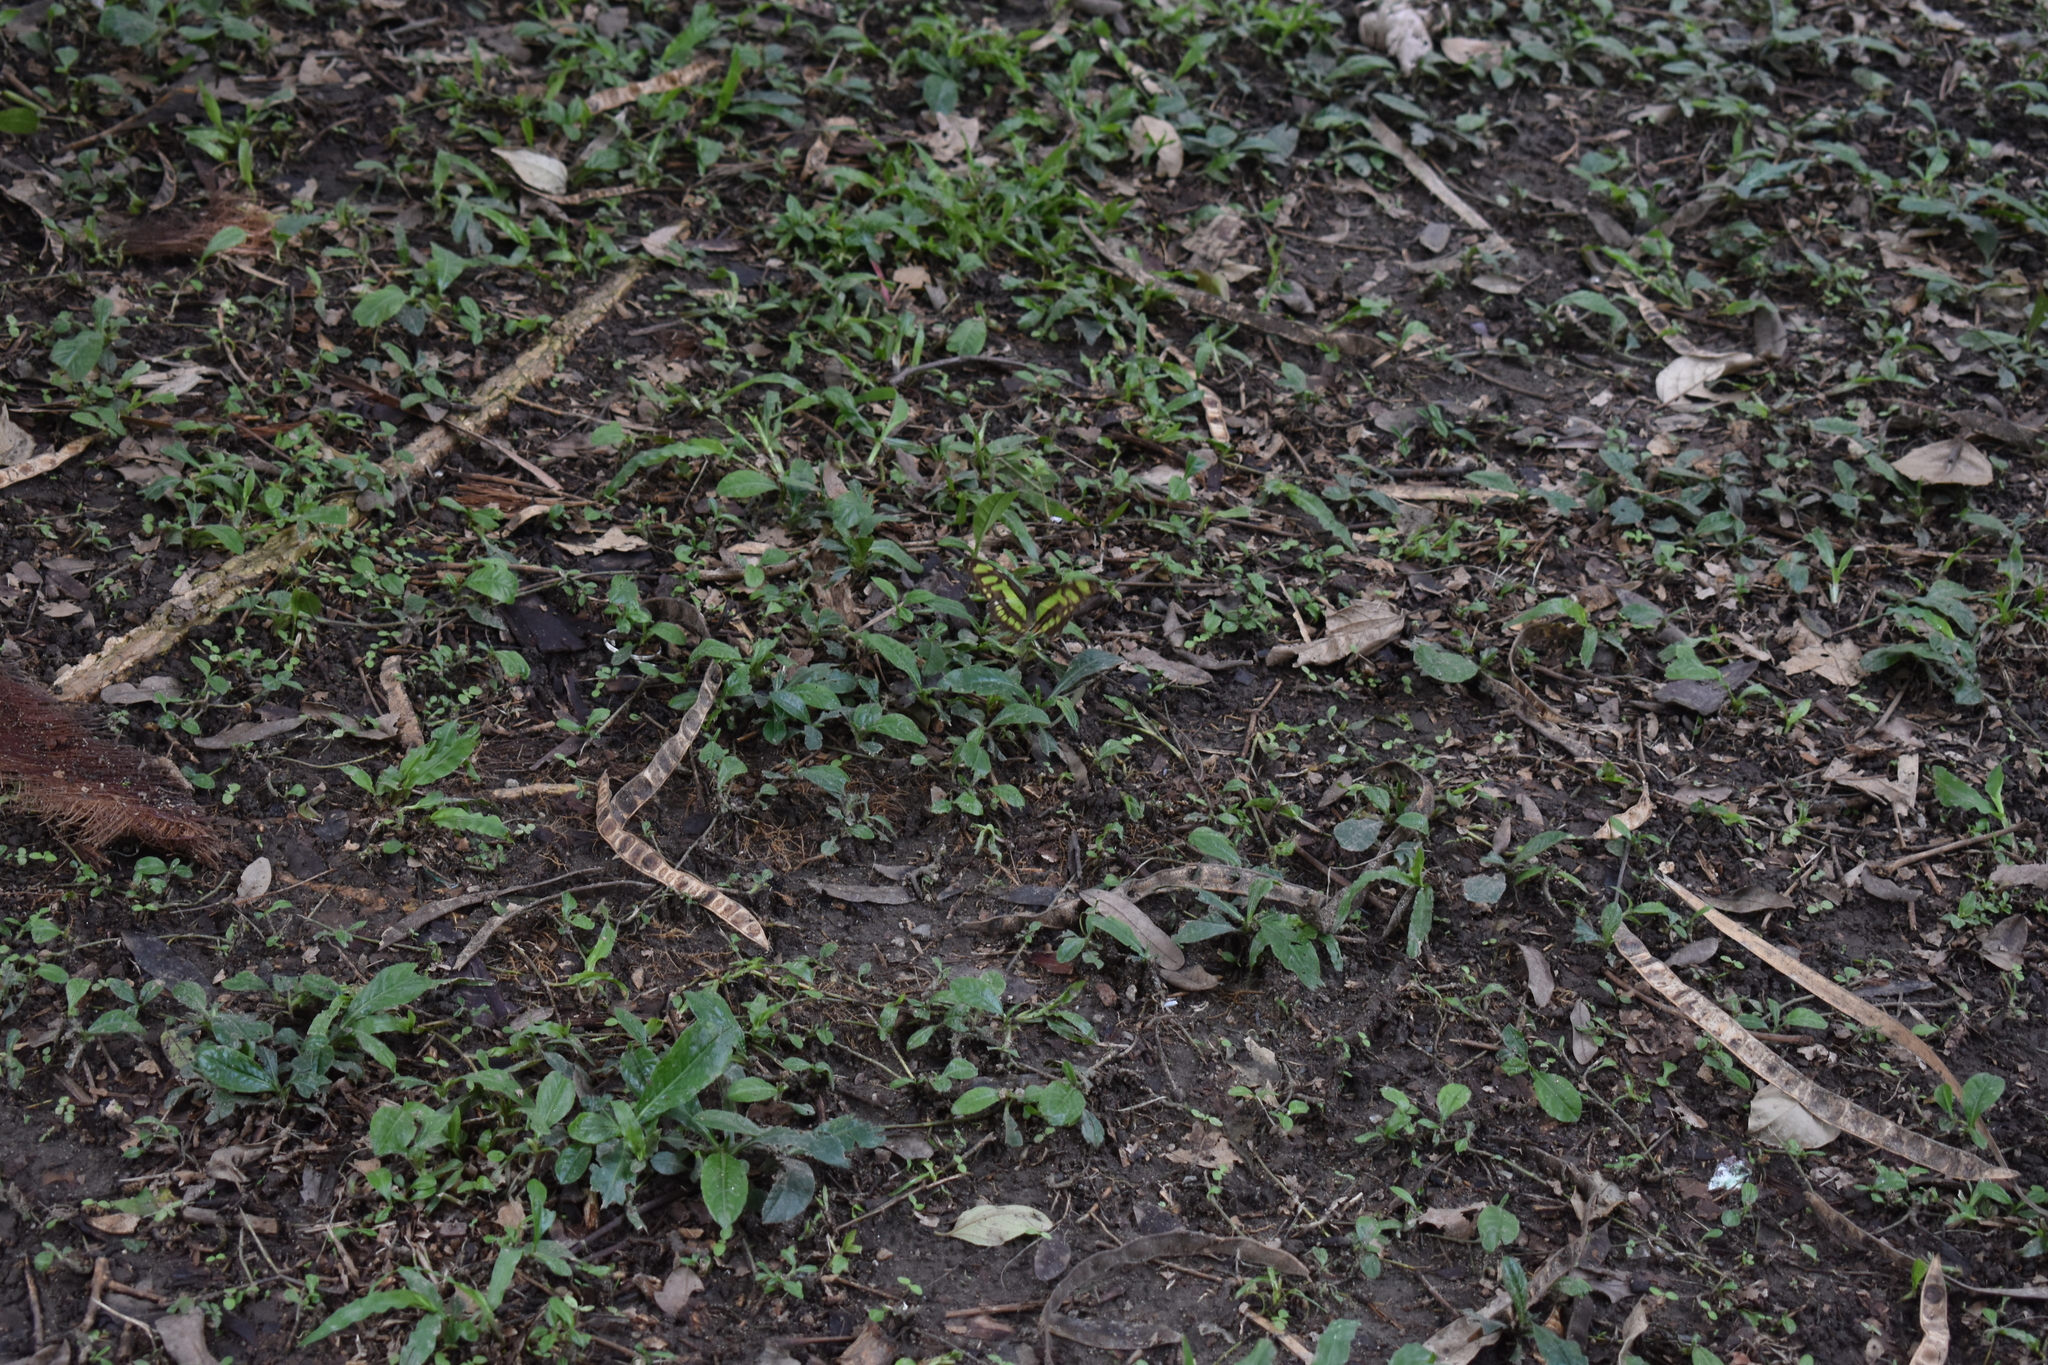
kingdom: Animalia
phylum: Arthropoda
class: Insecta
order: Lepidoptera
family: Nymphalidae
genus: Siproeta
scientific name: Siproeta stelenes
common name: Malachite
